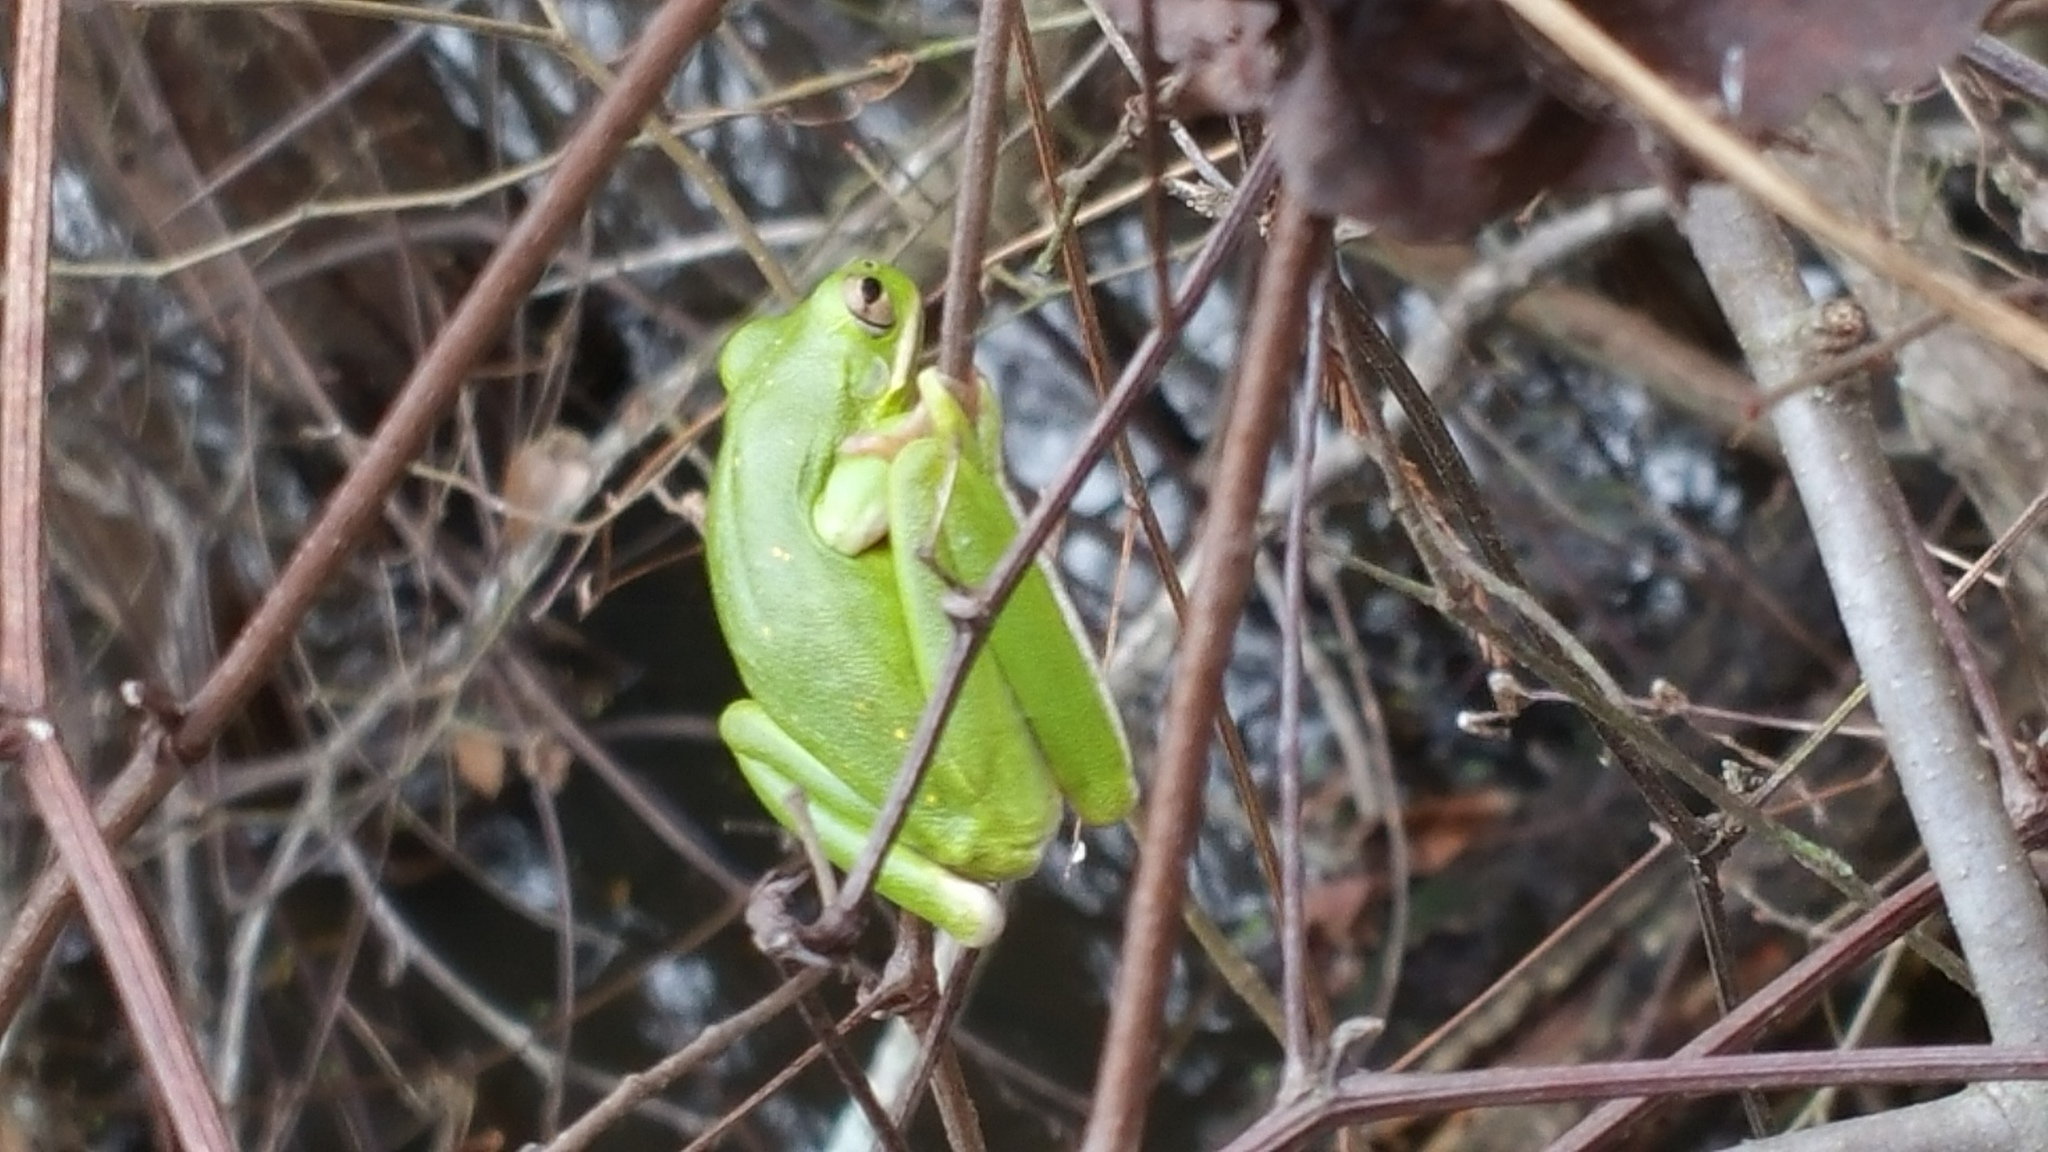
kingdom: Animalia
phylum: Chordata
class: Amphibia
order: Anura
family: Hylidae
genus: Dryophytes
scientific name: Dryophytes cinereus
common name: Green treefrog
